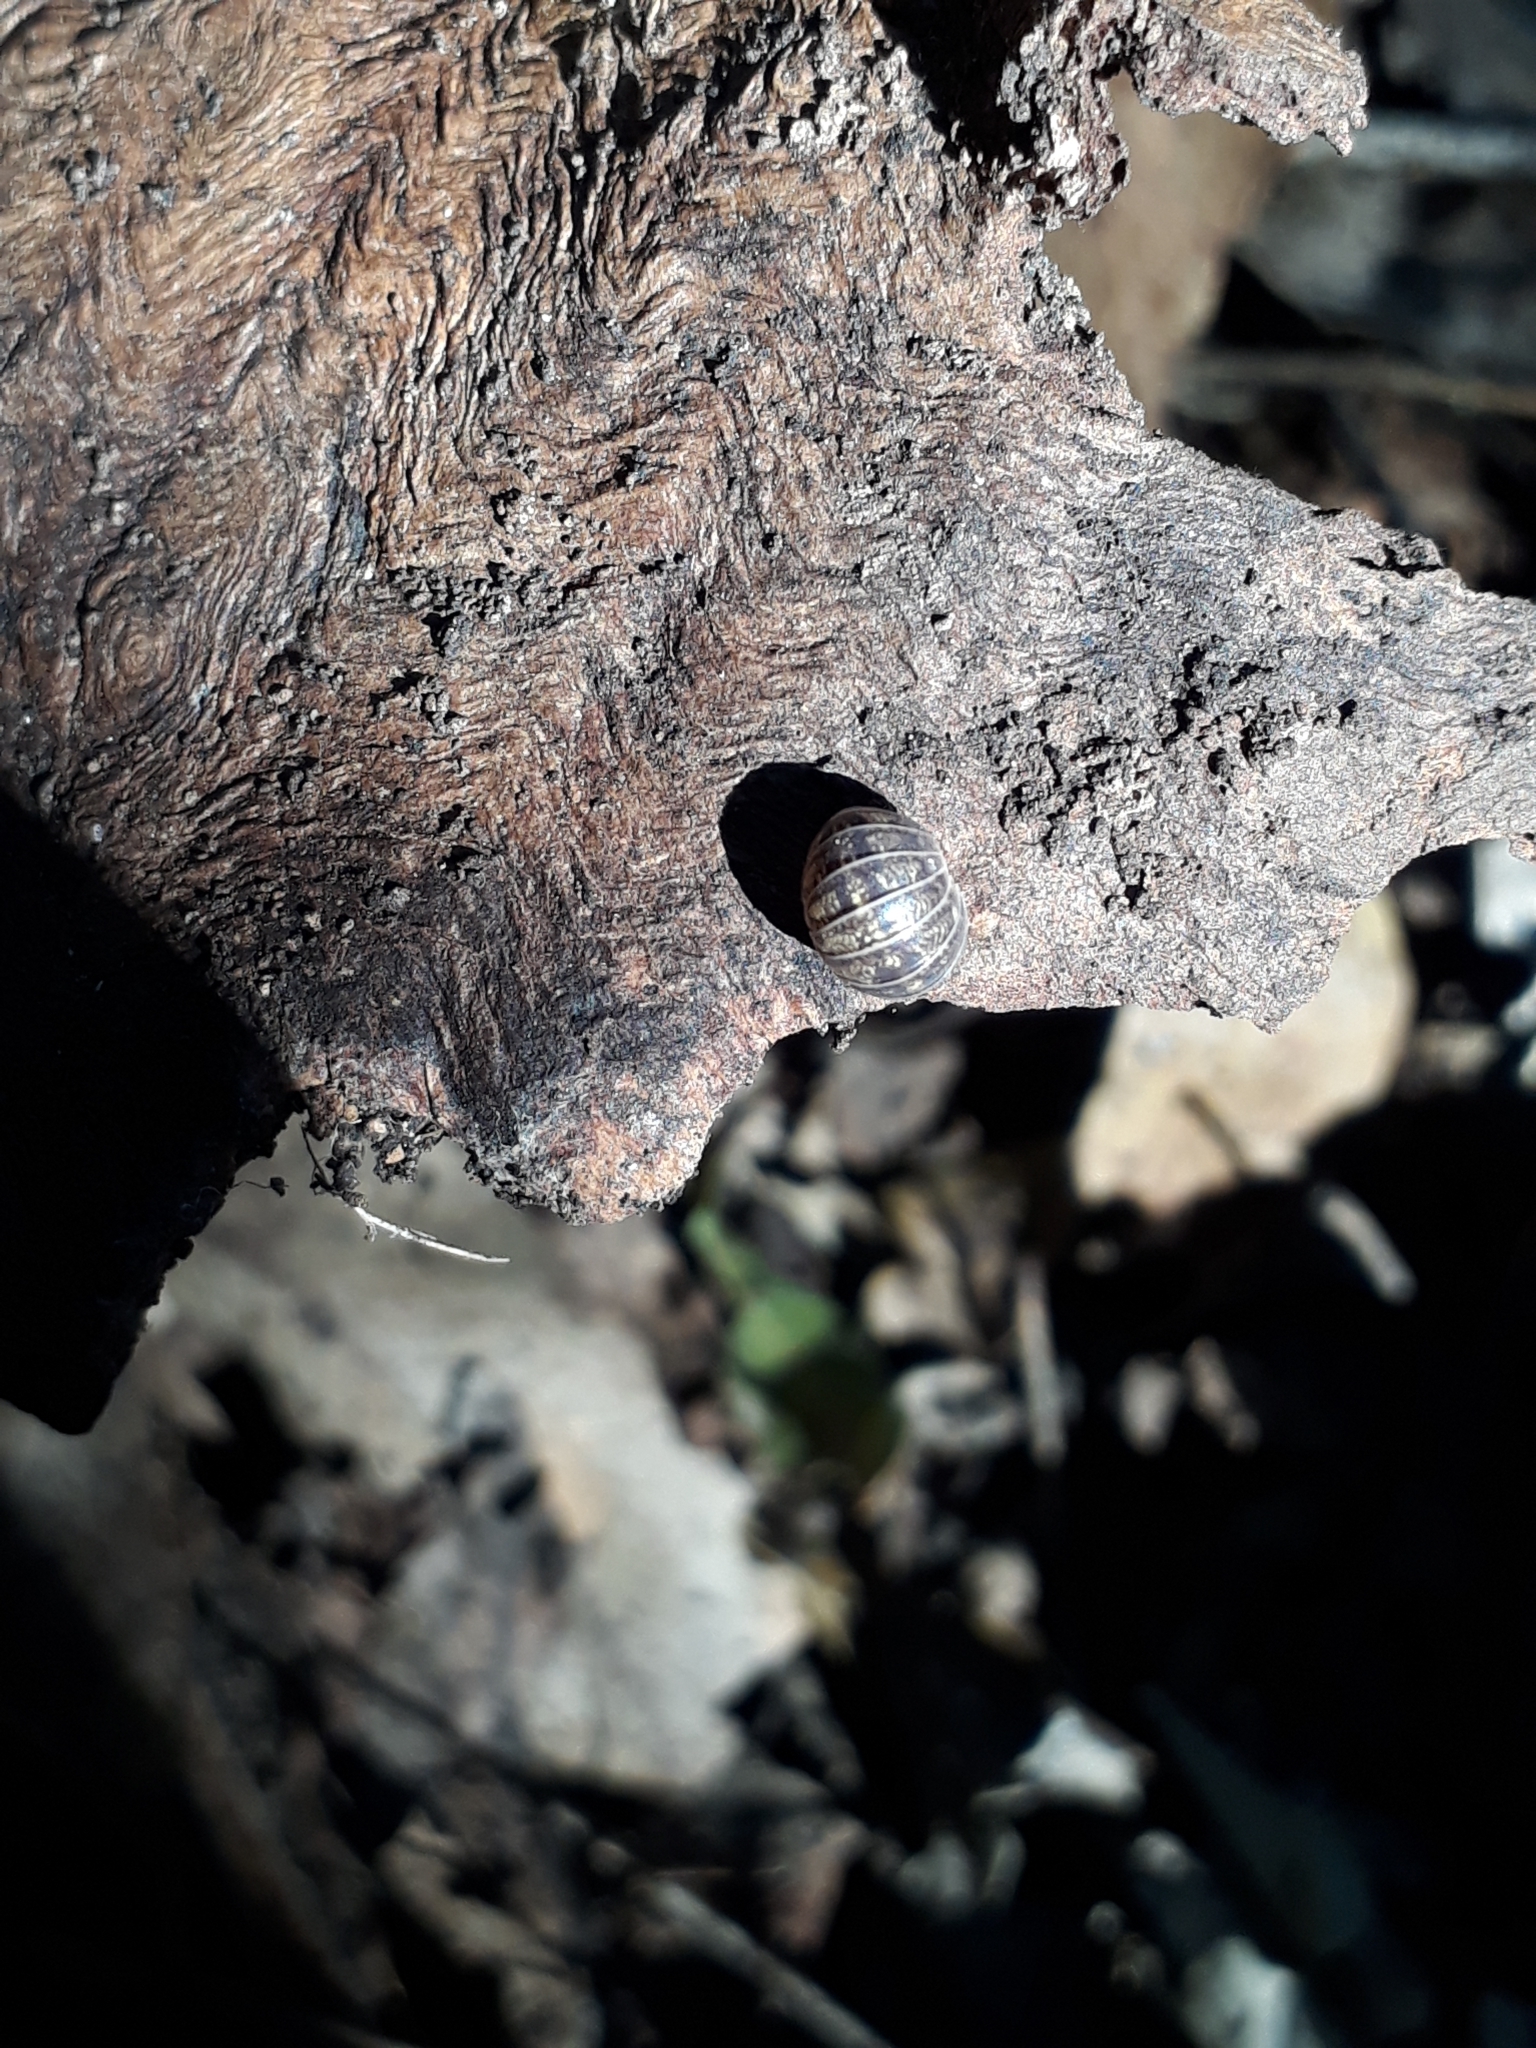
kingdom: Animalia
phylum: Arthropoda
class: Malacostraca
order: Isopoda
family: Armadillidiidae
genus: Armadillidium
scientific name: Armadillidium vulgare
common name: Common pill woodlouse
